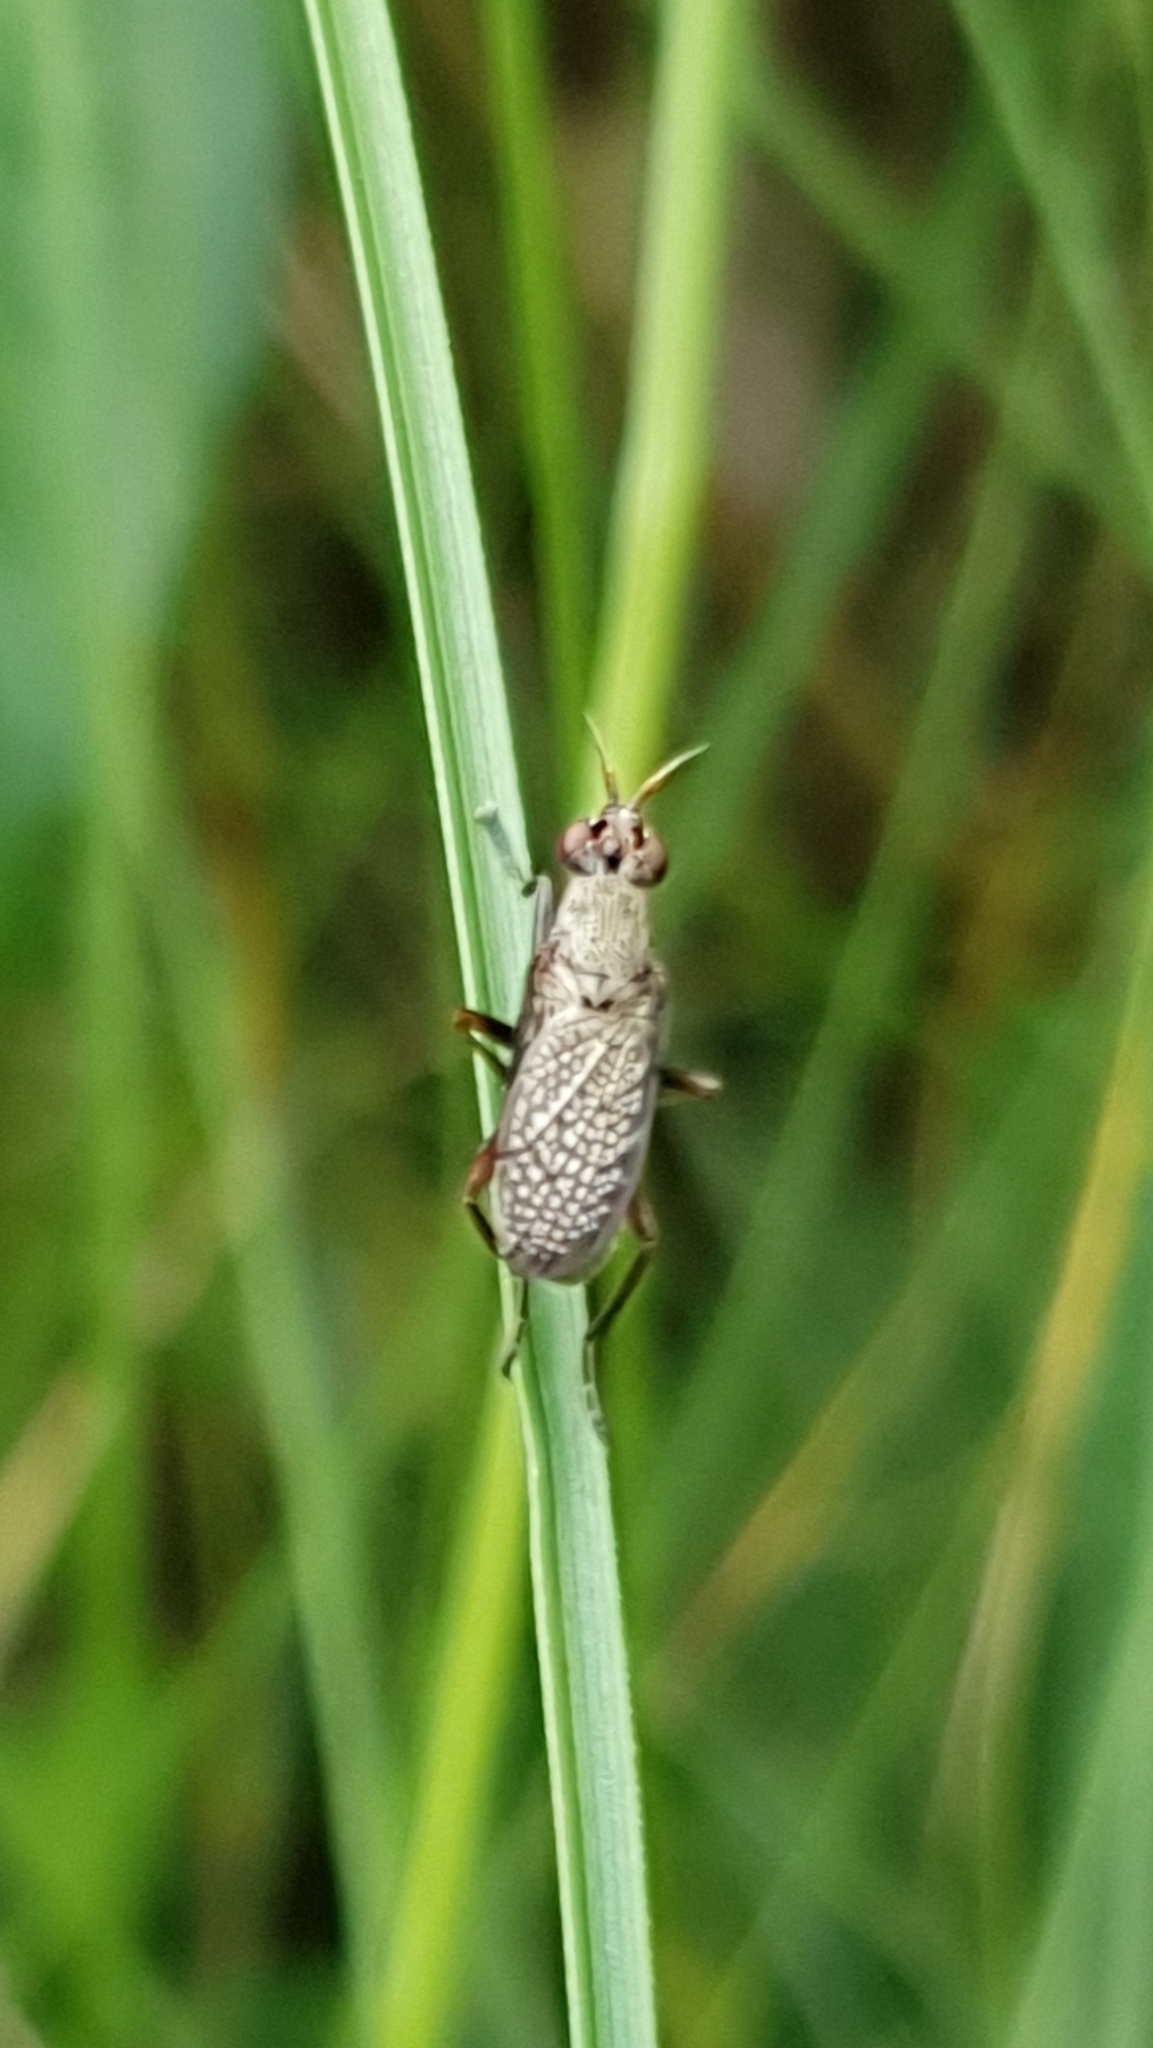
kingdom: Animalia
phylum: Arthropoda
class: Insecta
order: Diptera
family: Sciomyzidae
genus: Coremacera
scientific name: Coremacera marginata
